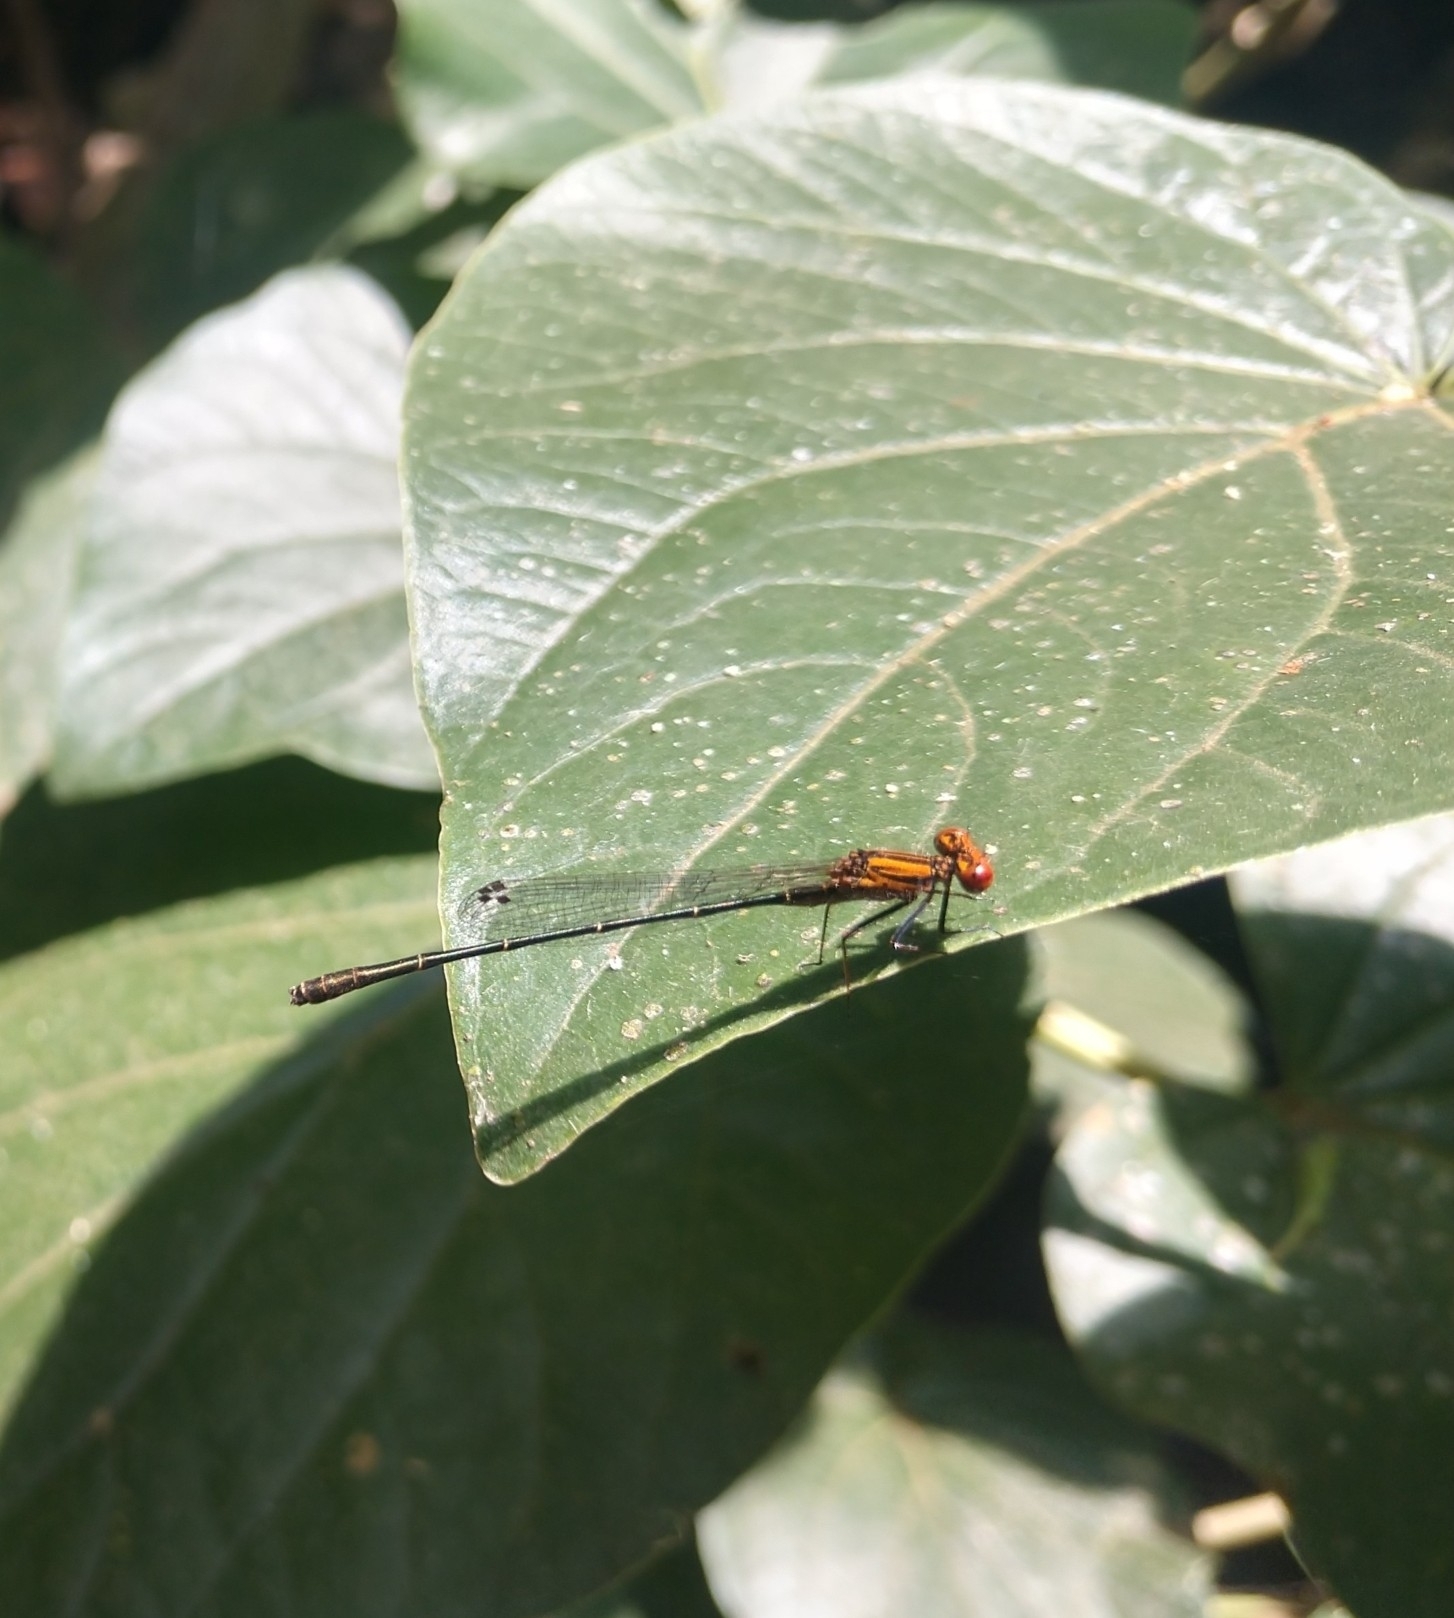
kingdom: Animalia
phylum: Arthropoda
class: Insecta
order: Odonata
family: Coenagrionidae
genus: Tigriagrion
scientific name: Tigriagrion aurantinigrum
